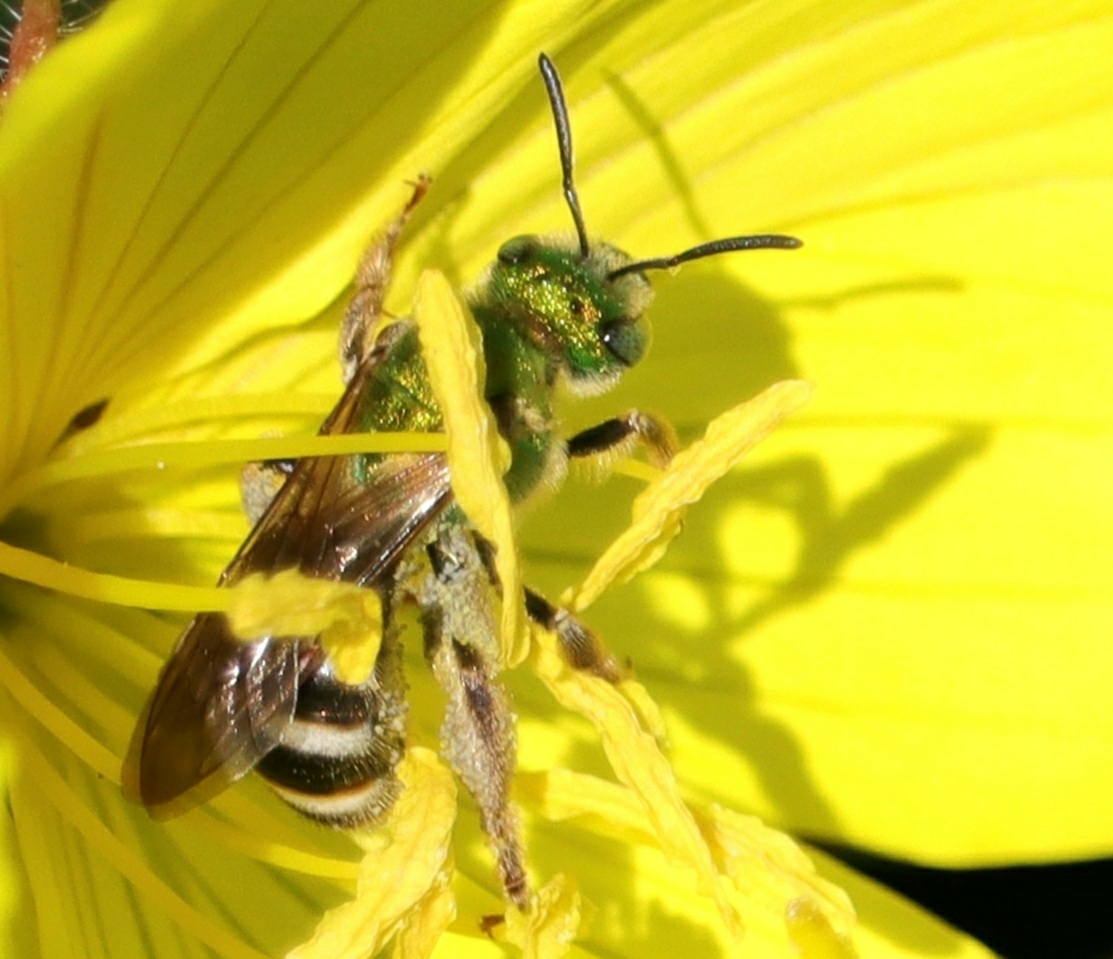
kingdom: Animalia
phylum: Arthropoda
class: Insecta
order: Hymenoptera
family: Halictidae
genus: Agapostemon
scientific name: Agapostemon virescens
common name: Bicolored striped sweat bee
